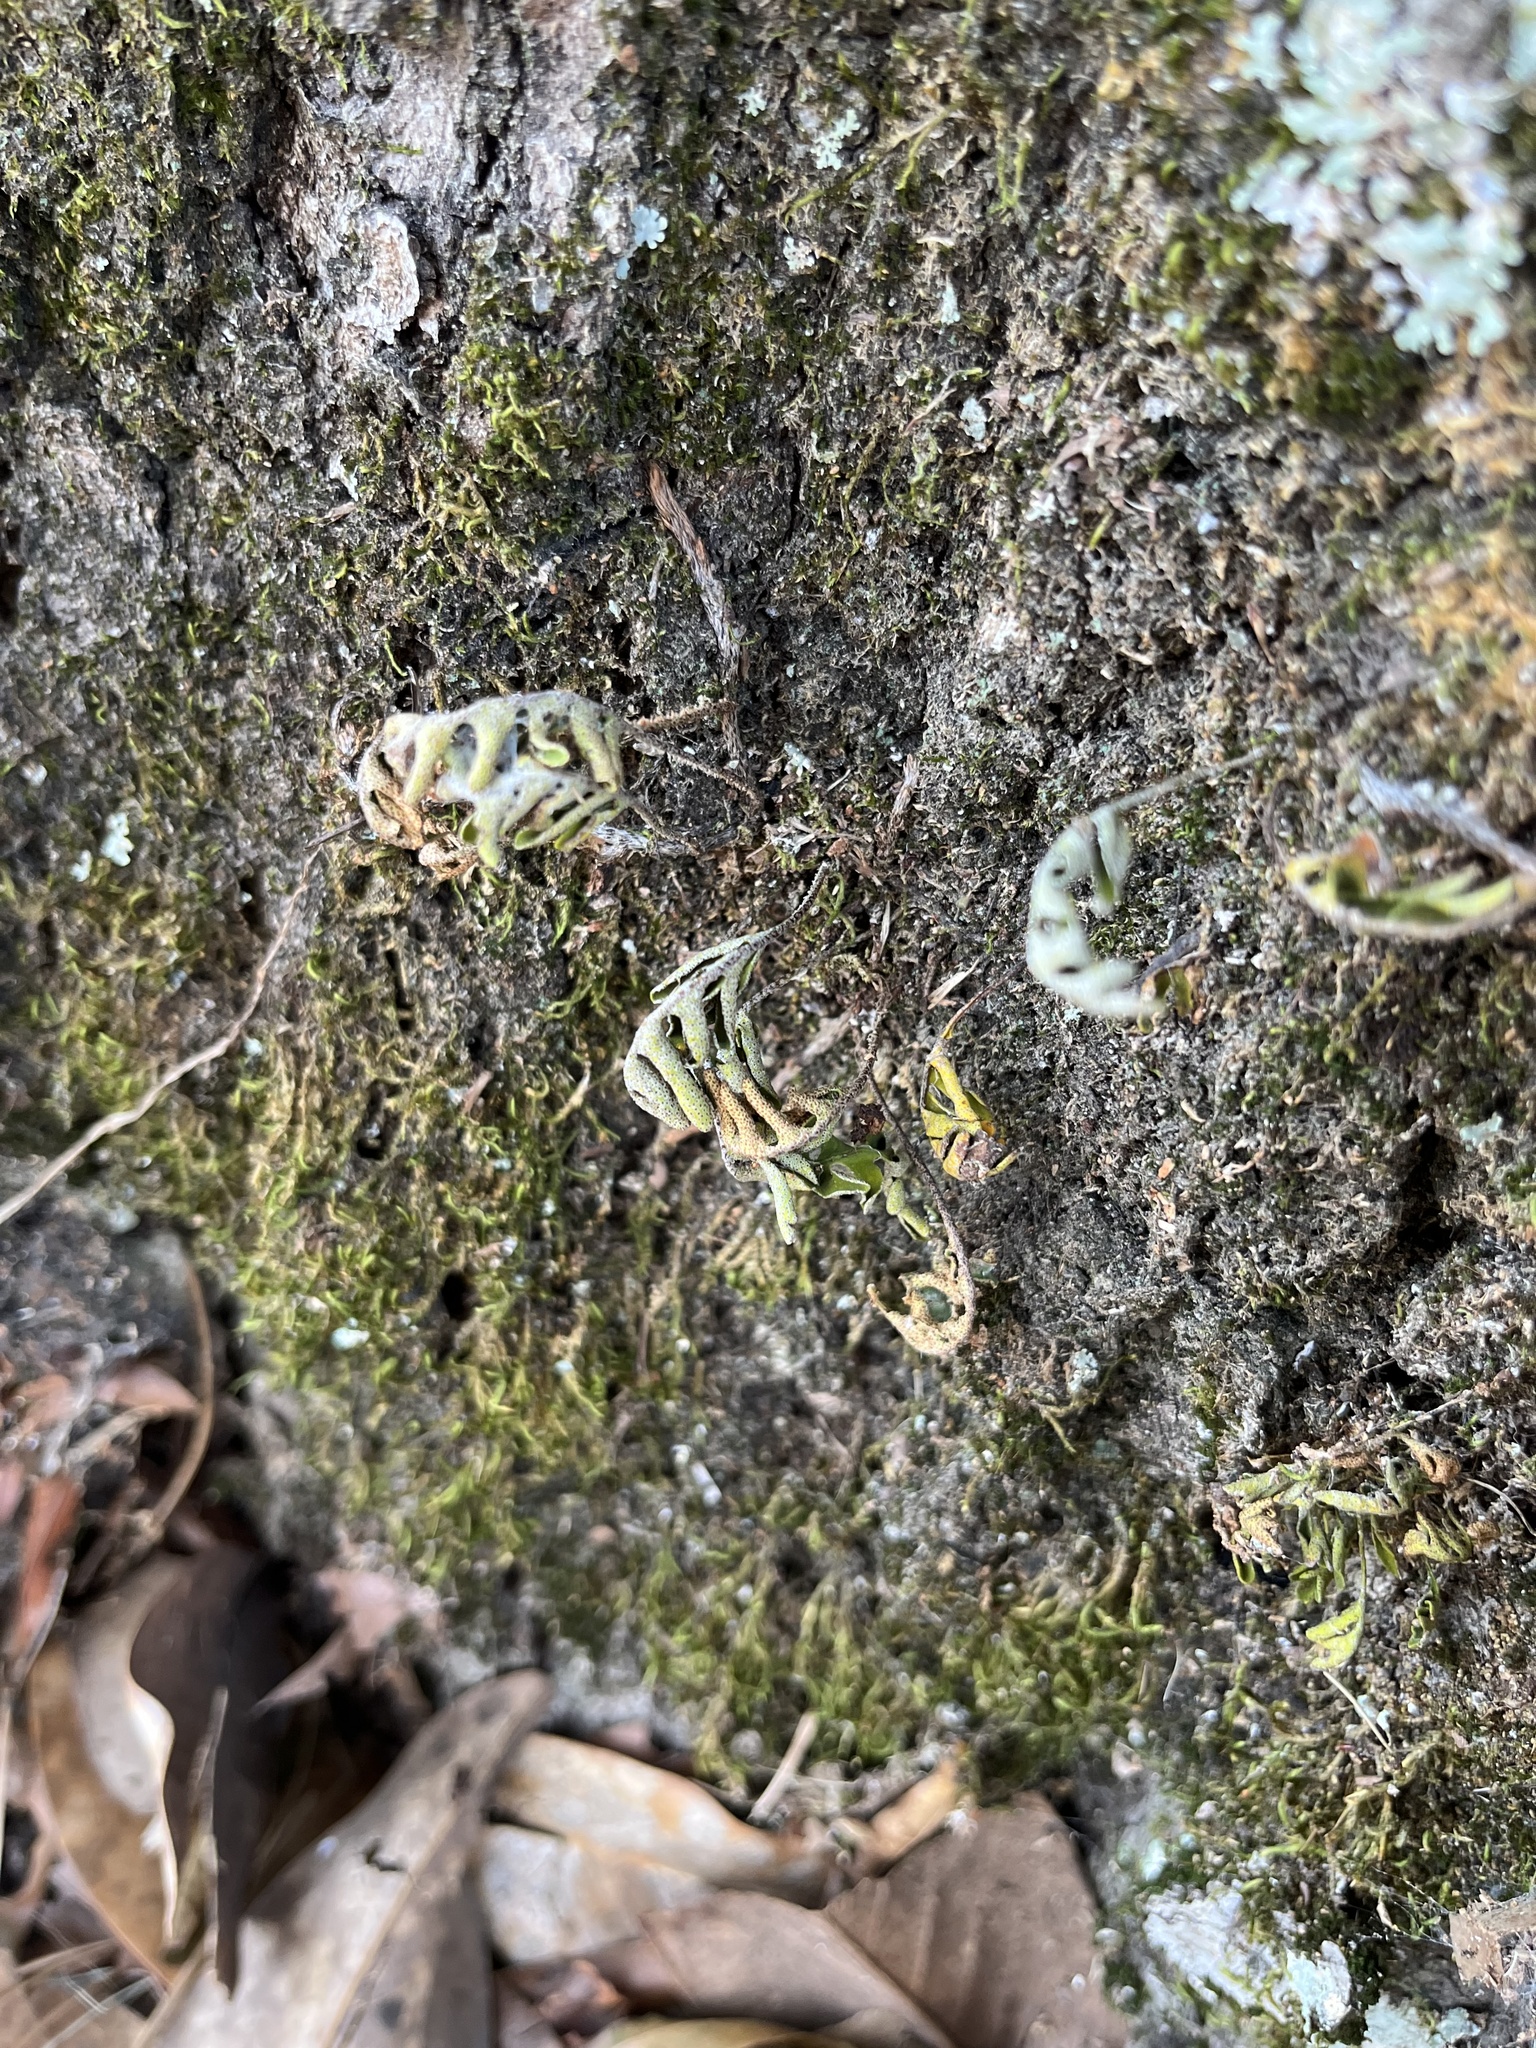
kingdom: Plantae
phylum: Tracheophyta
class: Polypodiopsida
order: Polypodiales
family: Polypodiaceae
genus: Pleopeltis
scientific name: Pleopeltis michauxiana
